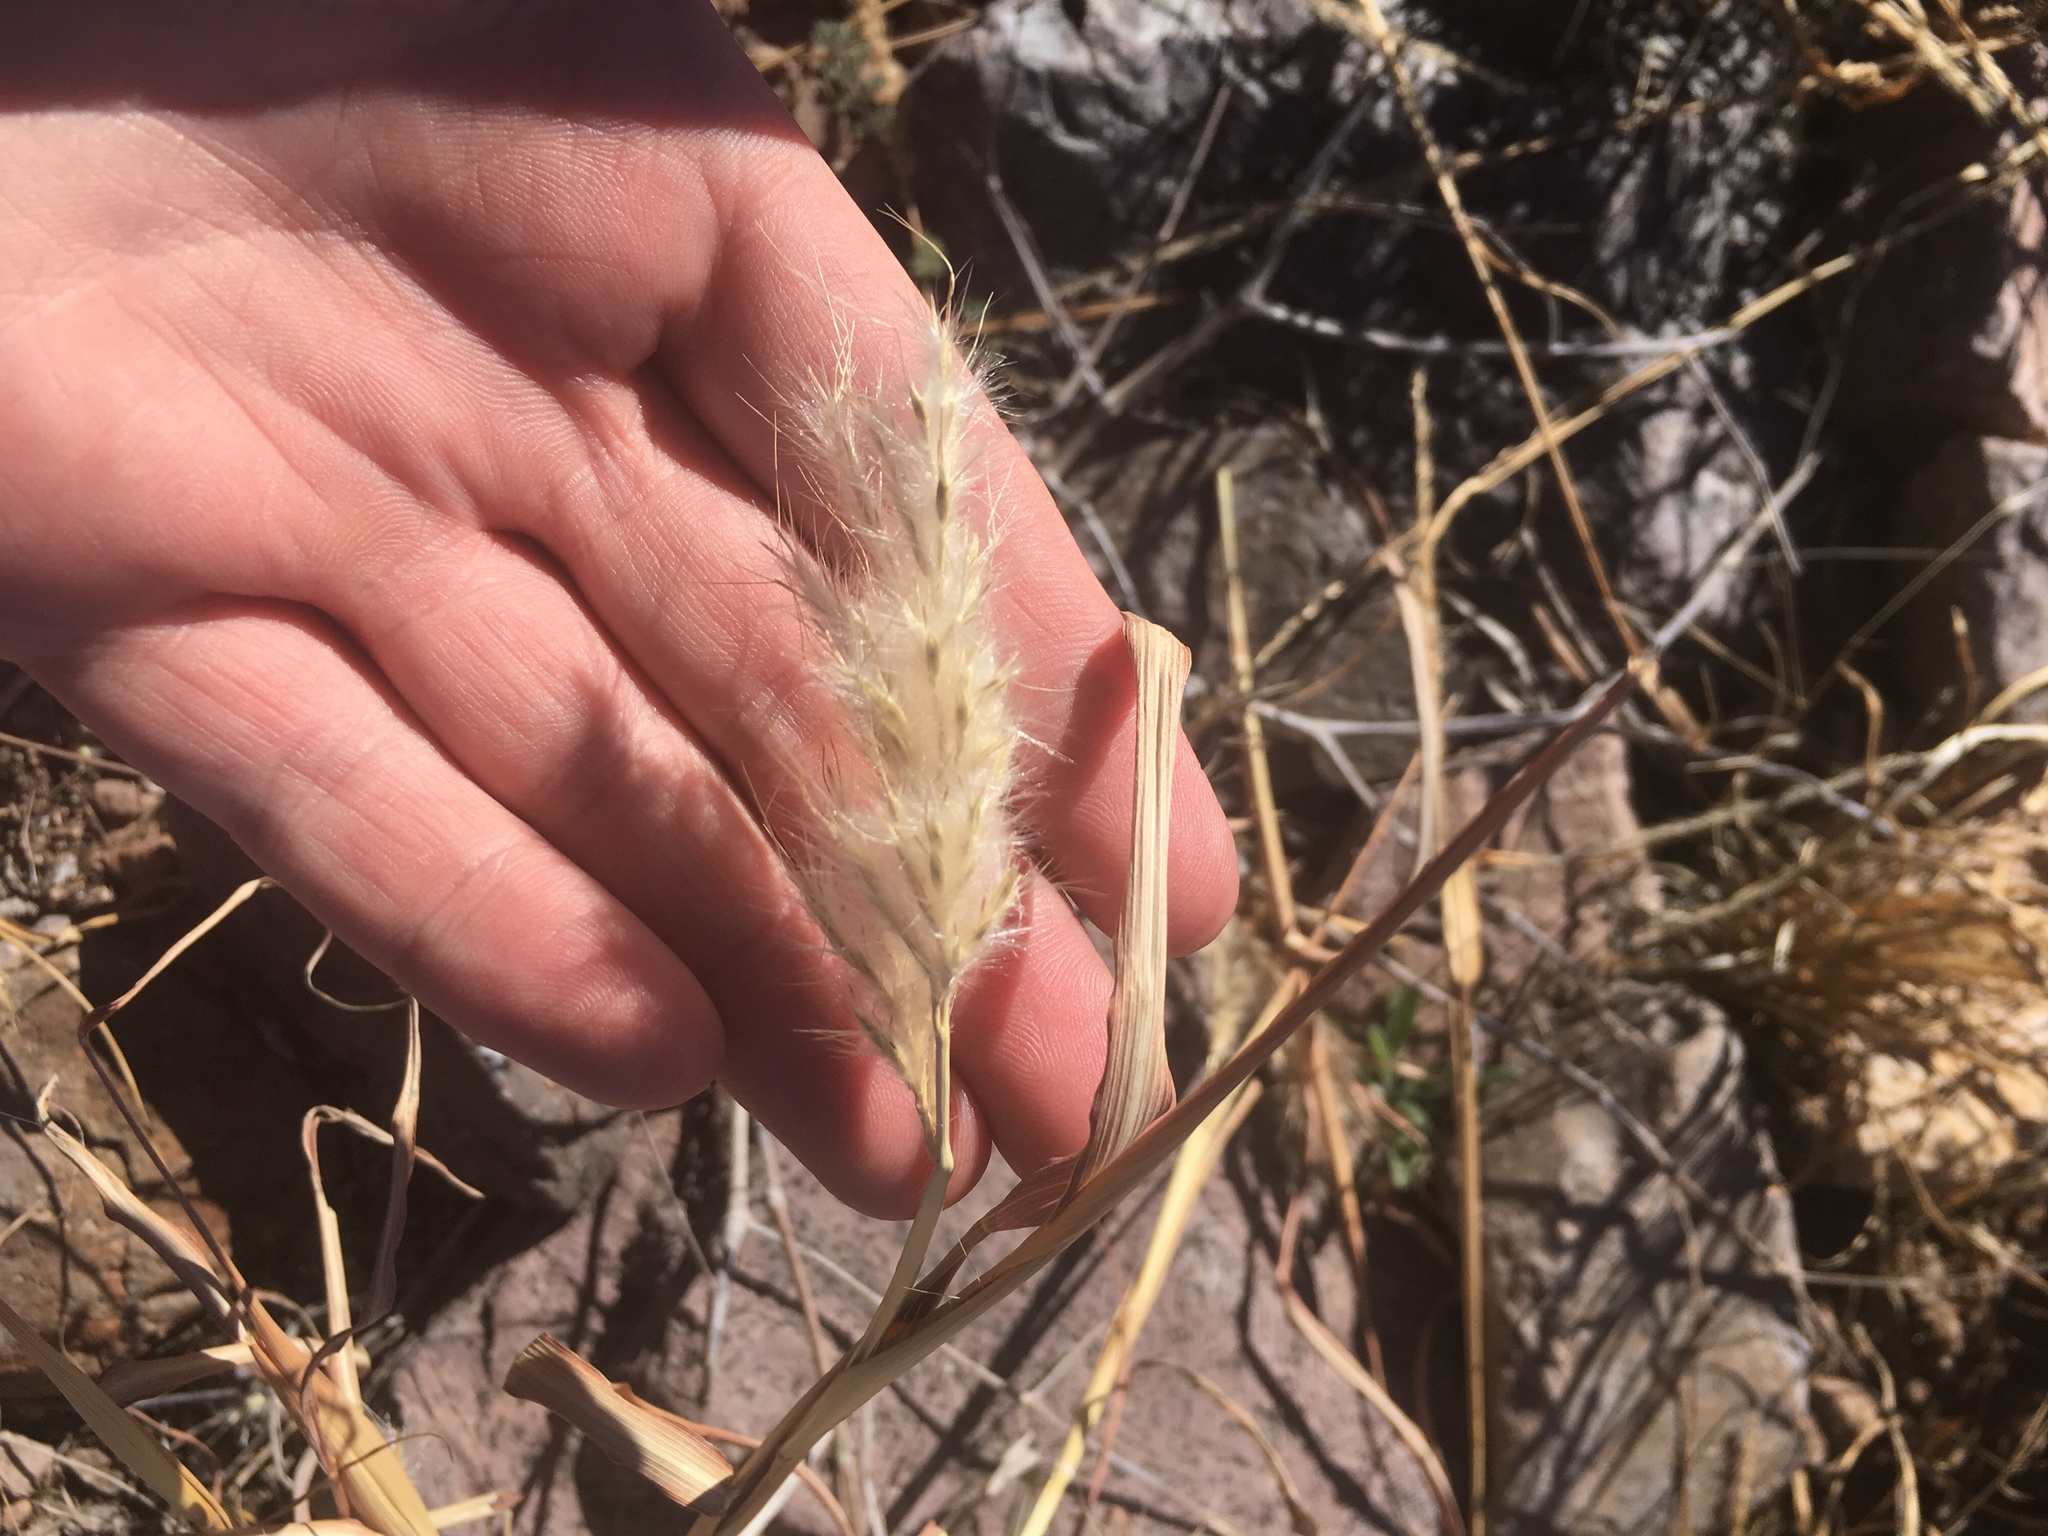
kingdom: Plantae
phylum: Tracheophyta
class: Liliopsida
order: Poales
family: Poaceae
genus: Bothriochloa
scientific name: Bothriochloa barbinodis
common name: Cane bluestem
